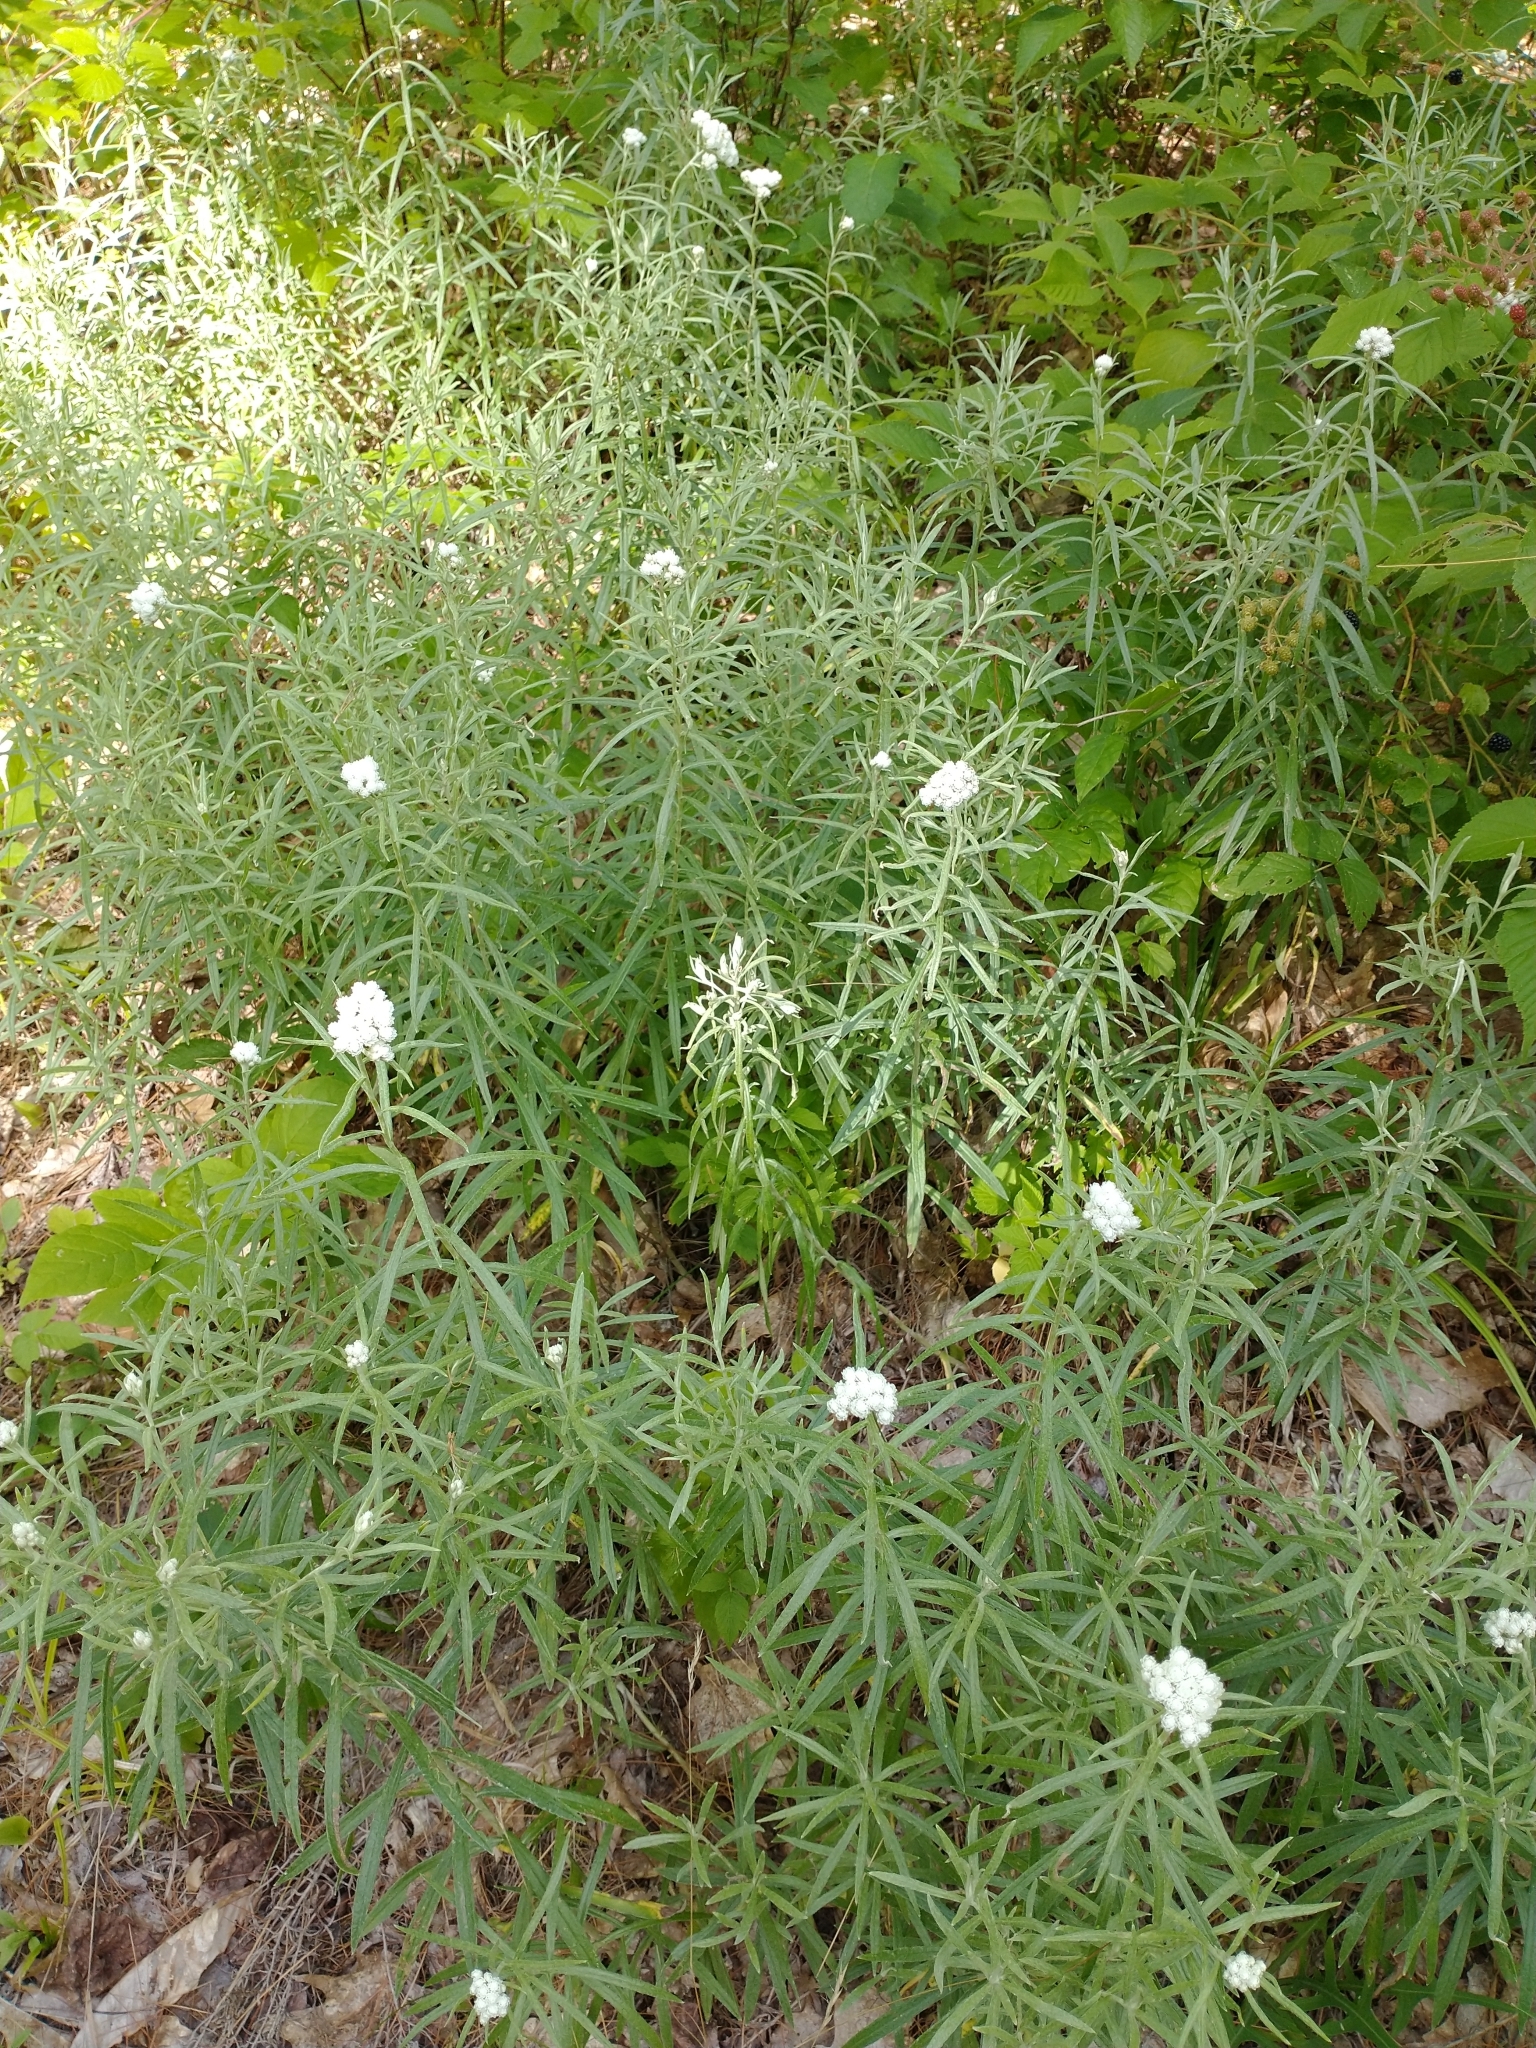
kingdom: Plantae
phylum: Tracheophyta
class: Magnoliopsida
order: Asterales
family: Asteraceae
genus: Anaphalis
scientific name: Anaphalis margaritacea
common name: Pearly everlasting
